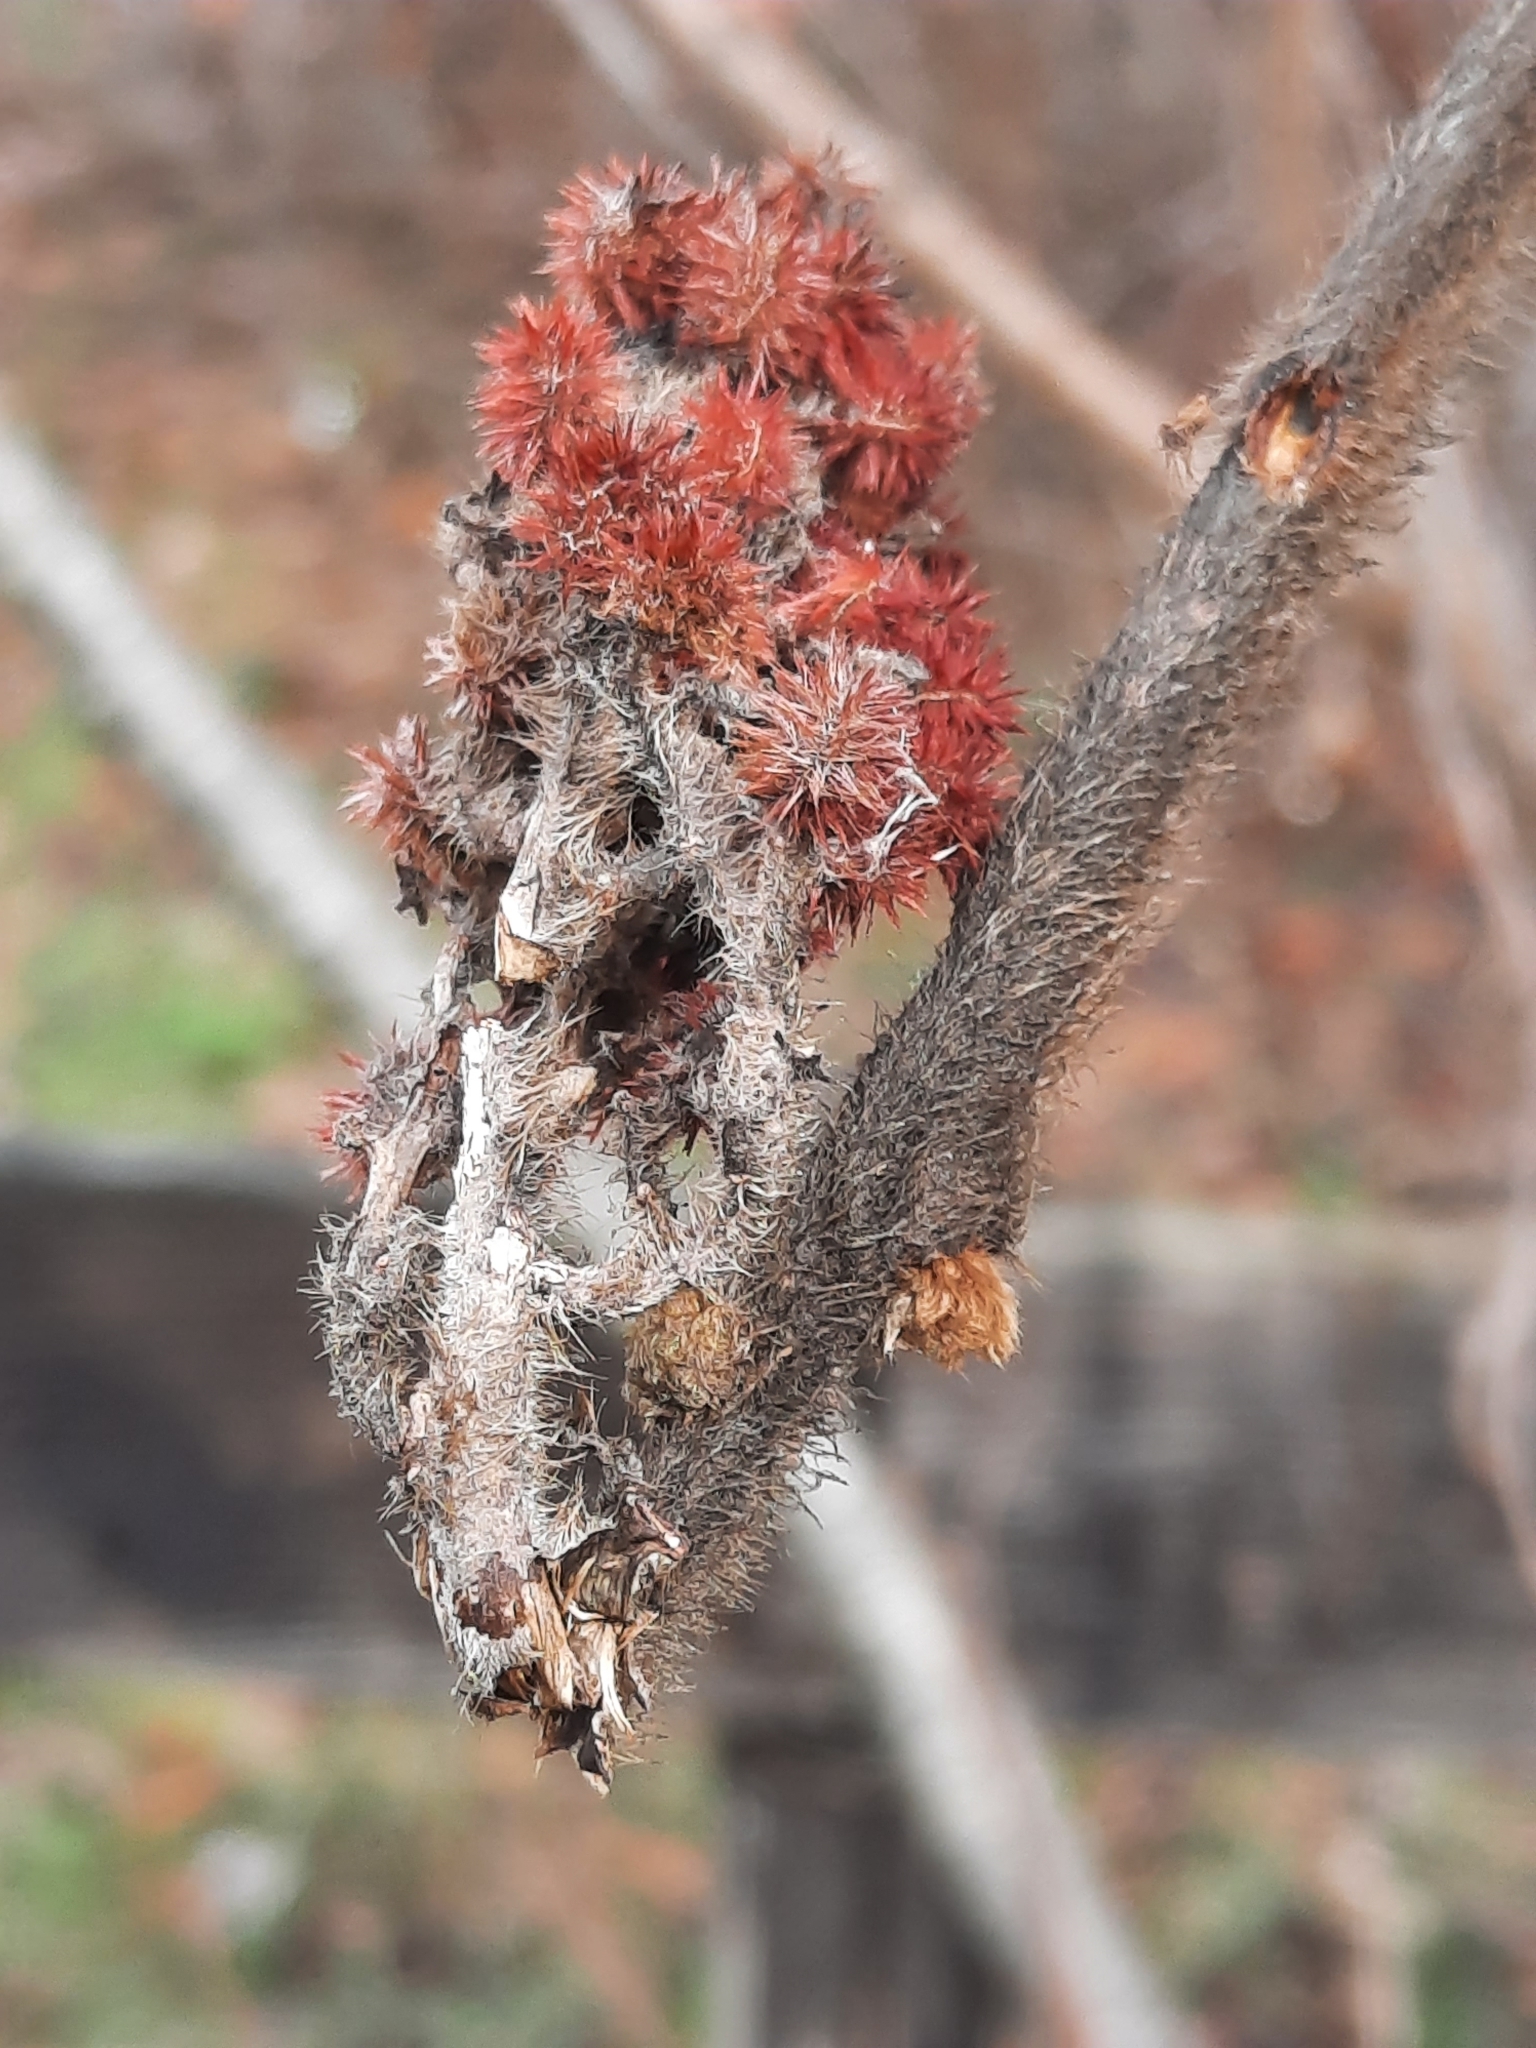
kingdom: Plantae
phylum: Tracheophyta
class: Magnoliopsida
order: Sapindales
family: Anacardiaceae
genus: Rhus
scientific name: Rhus typhina
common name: Staghorn sumac
